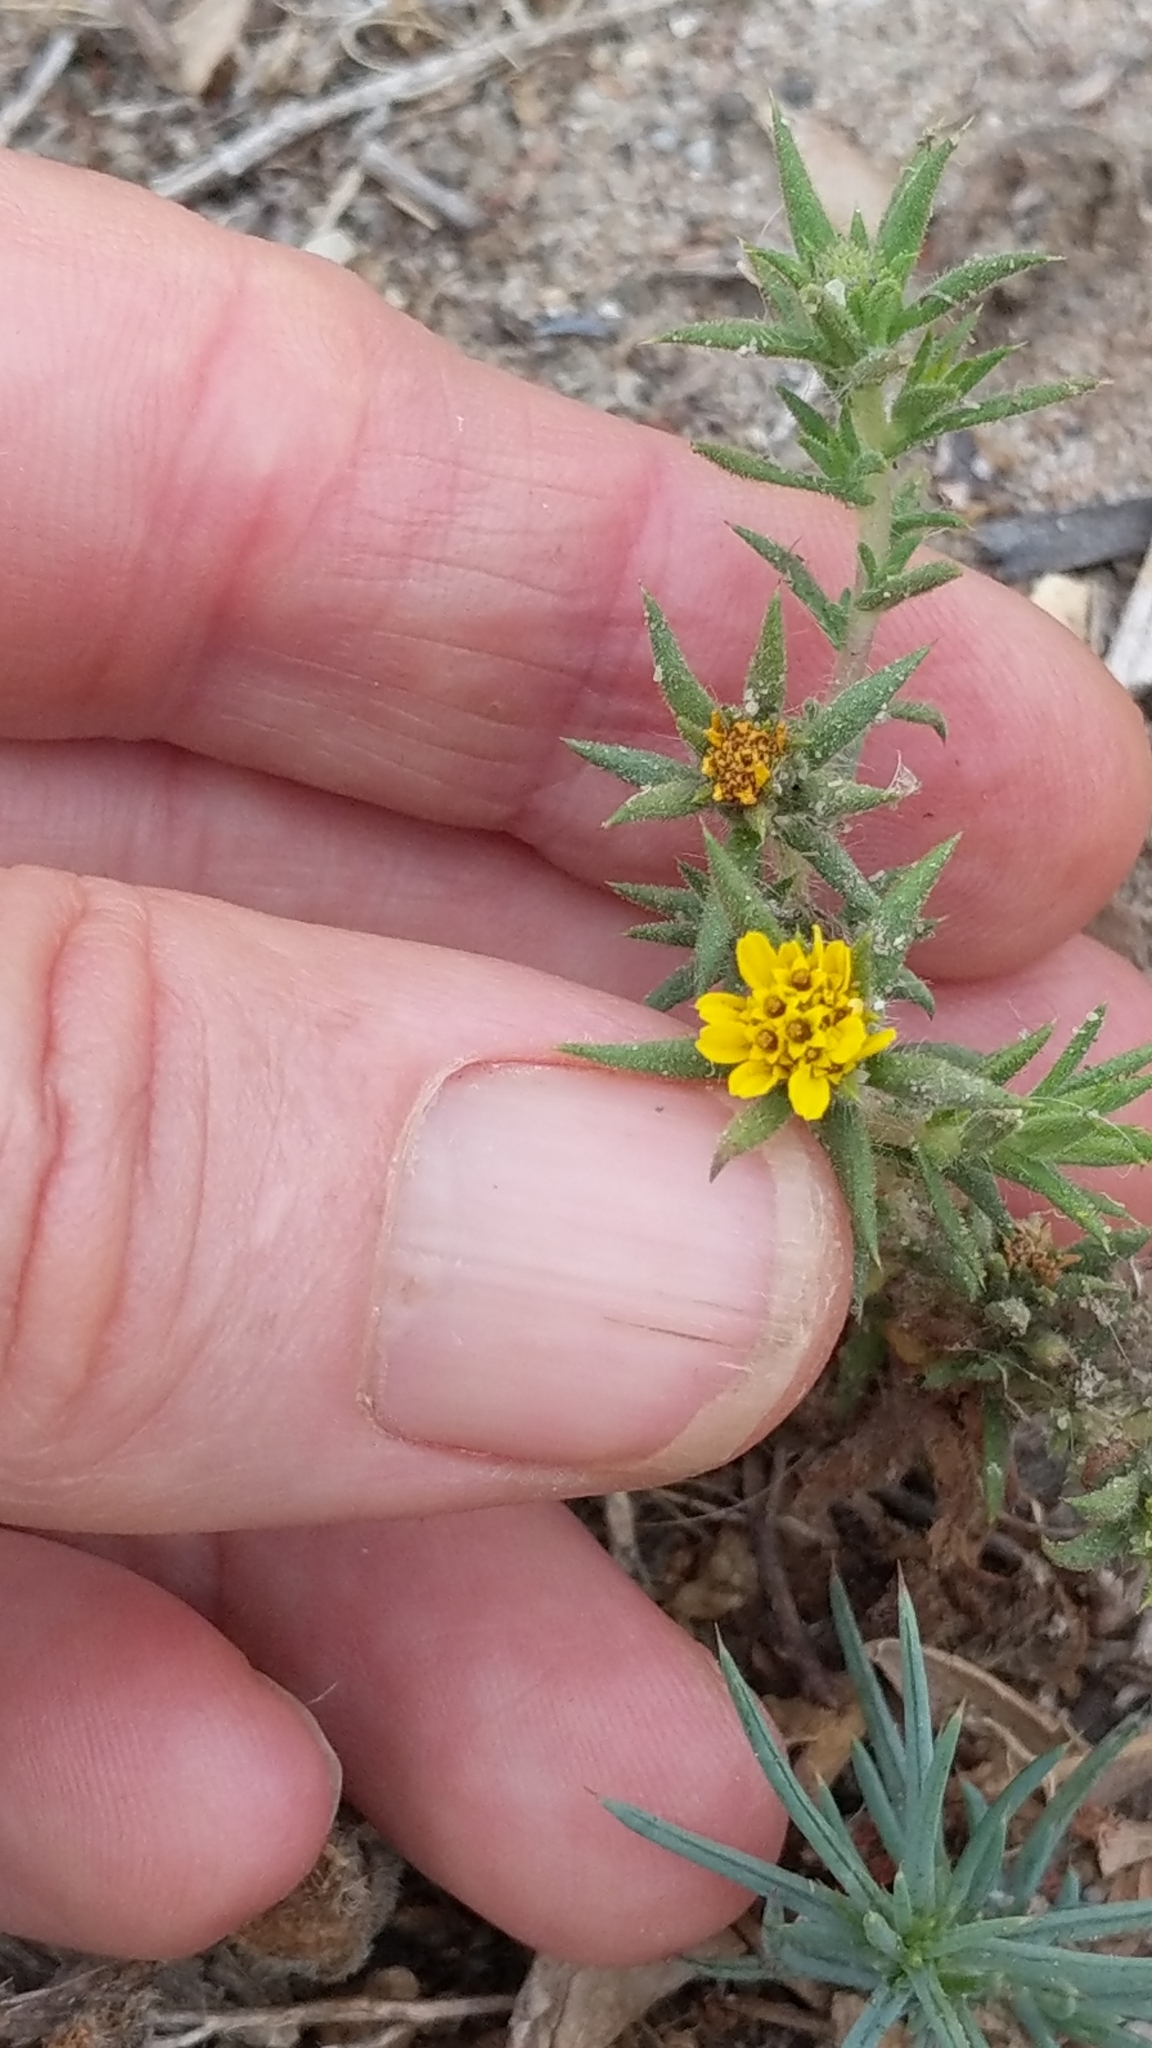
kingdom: Plantae
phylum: Tracheophyta
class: Magnoliopsida
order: Asterales
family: Asteraceae
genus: Centromadia
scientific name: Centromadia parryi
